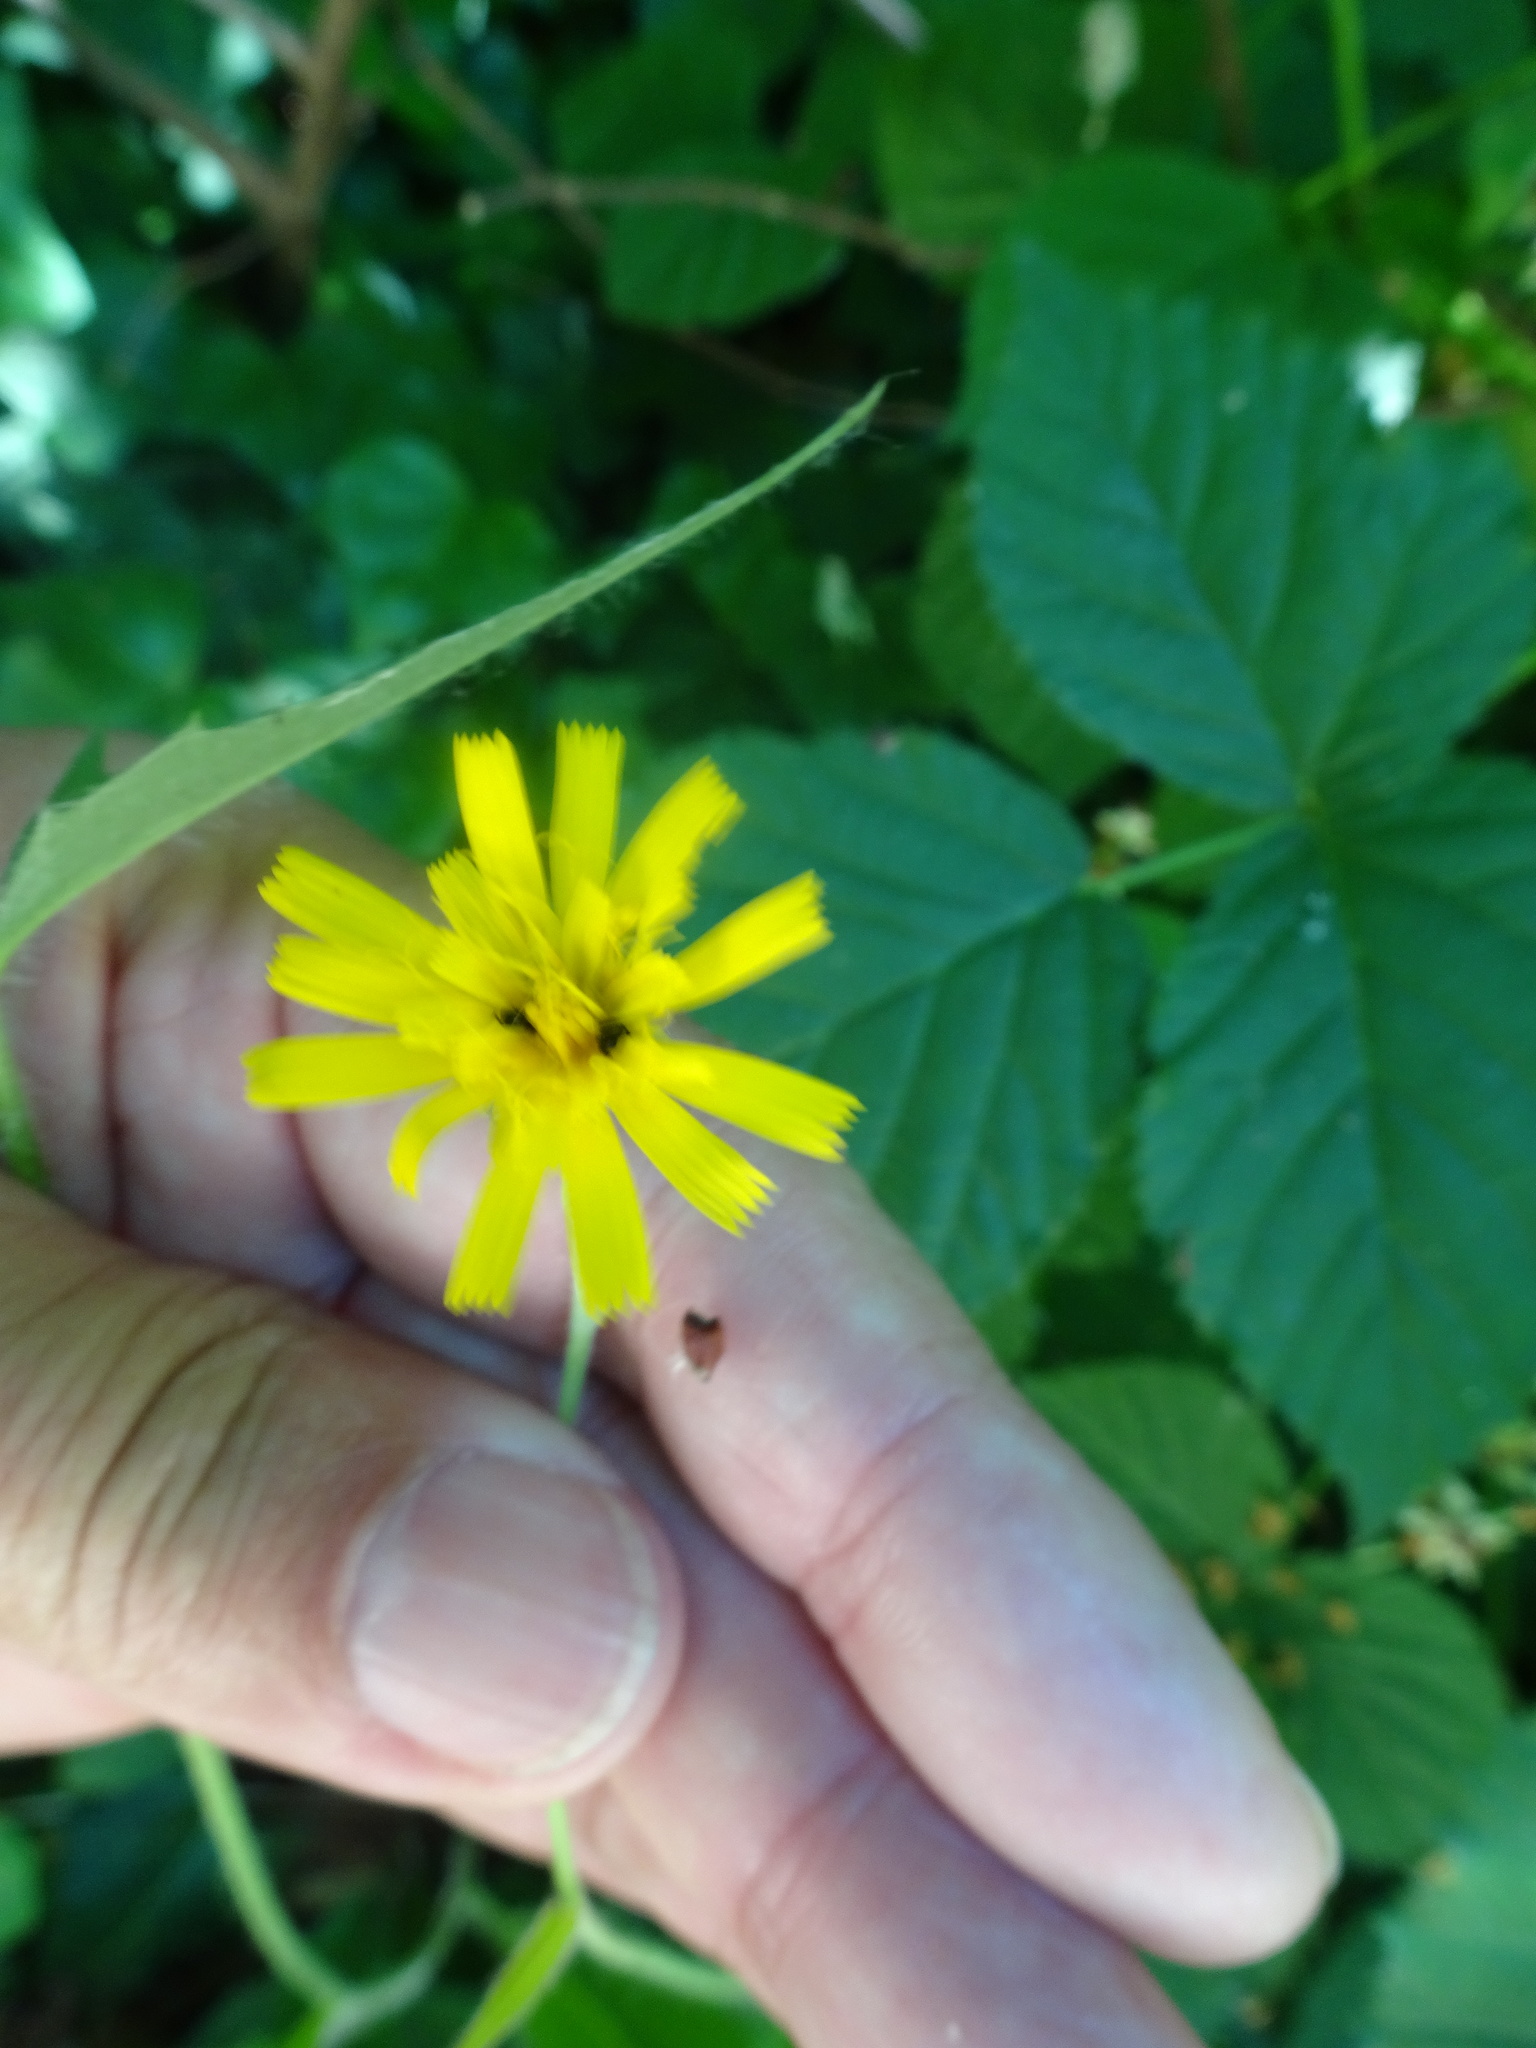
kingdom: Plantae
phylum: Tracheophyta
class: Magnoliopsida
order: Asterales
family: Asteraceae
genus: Hieracium
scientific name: Hieracium lachenalii
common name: Common hawkweed
